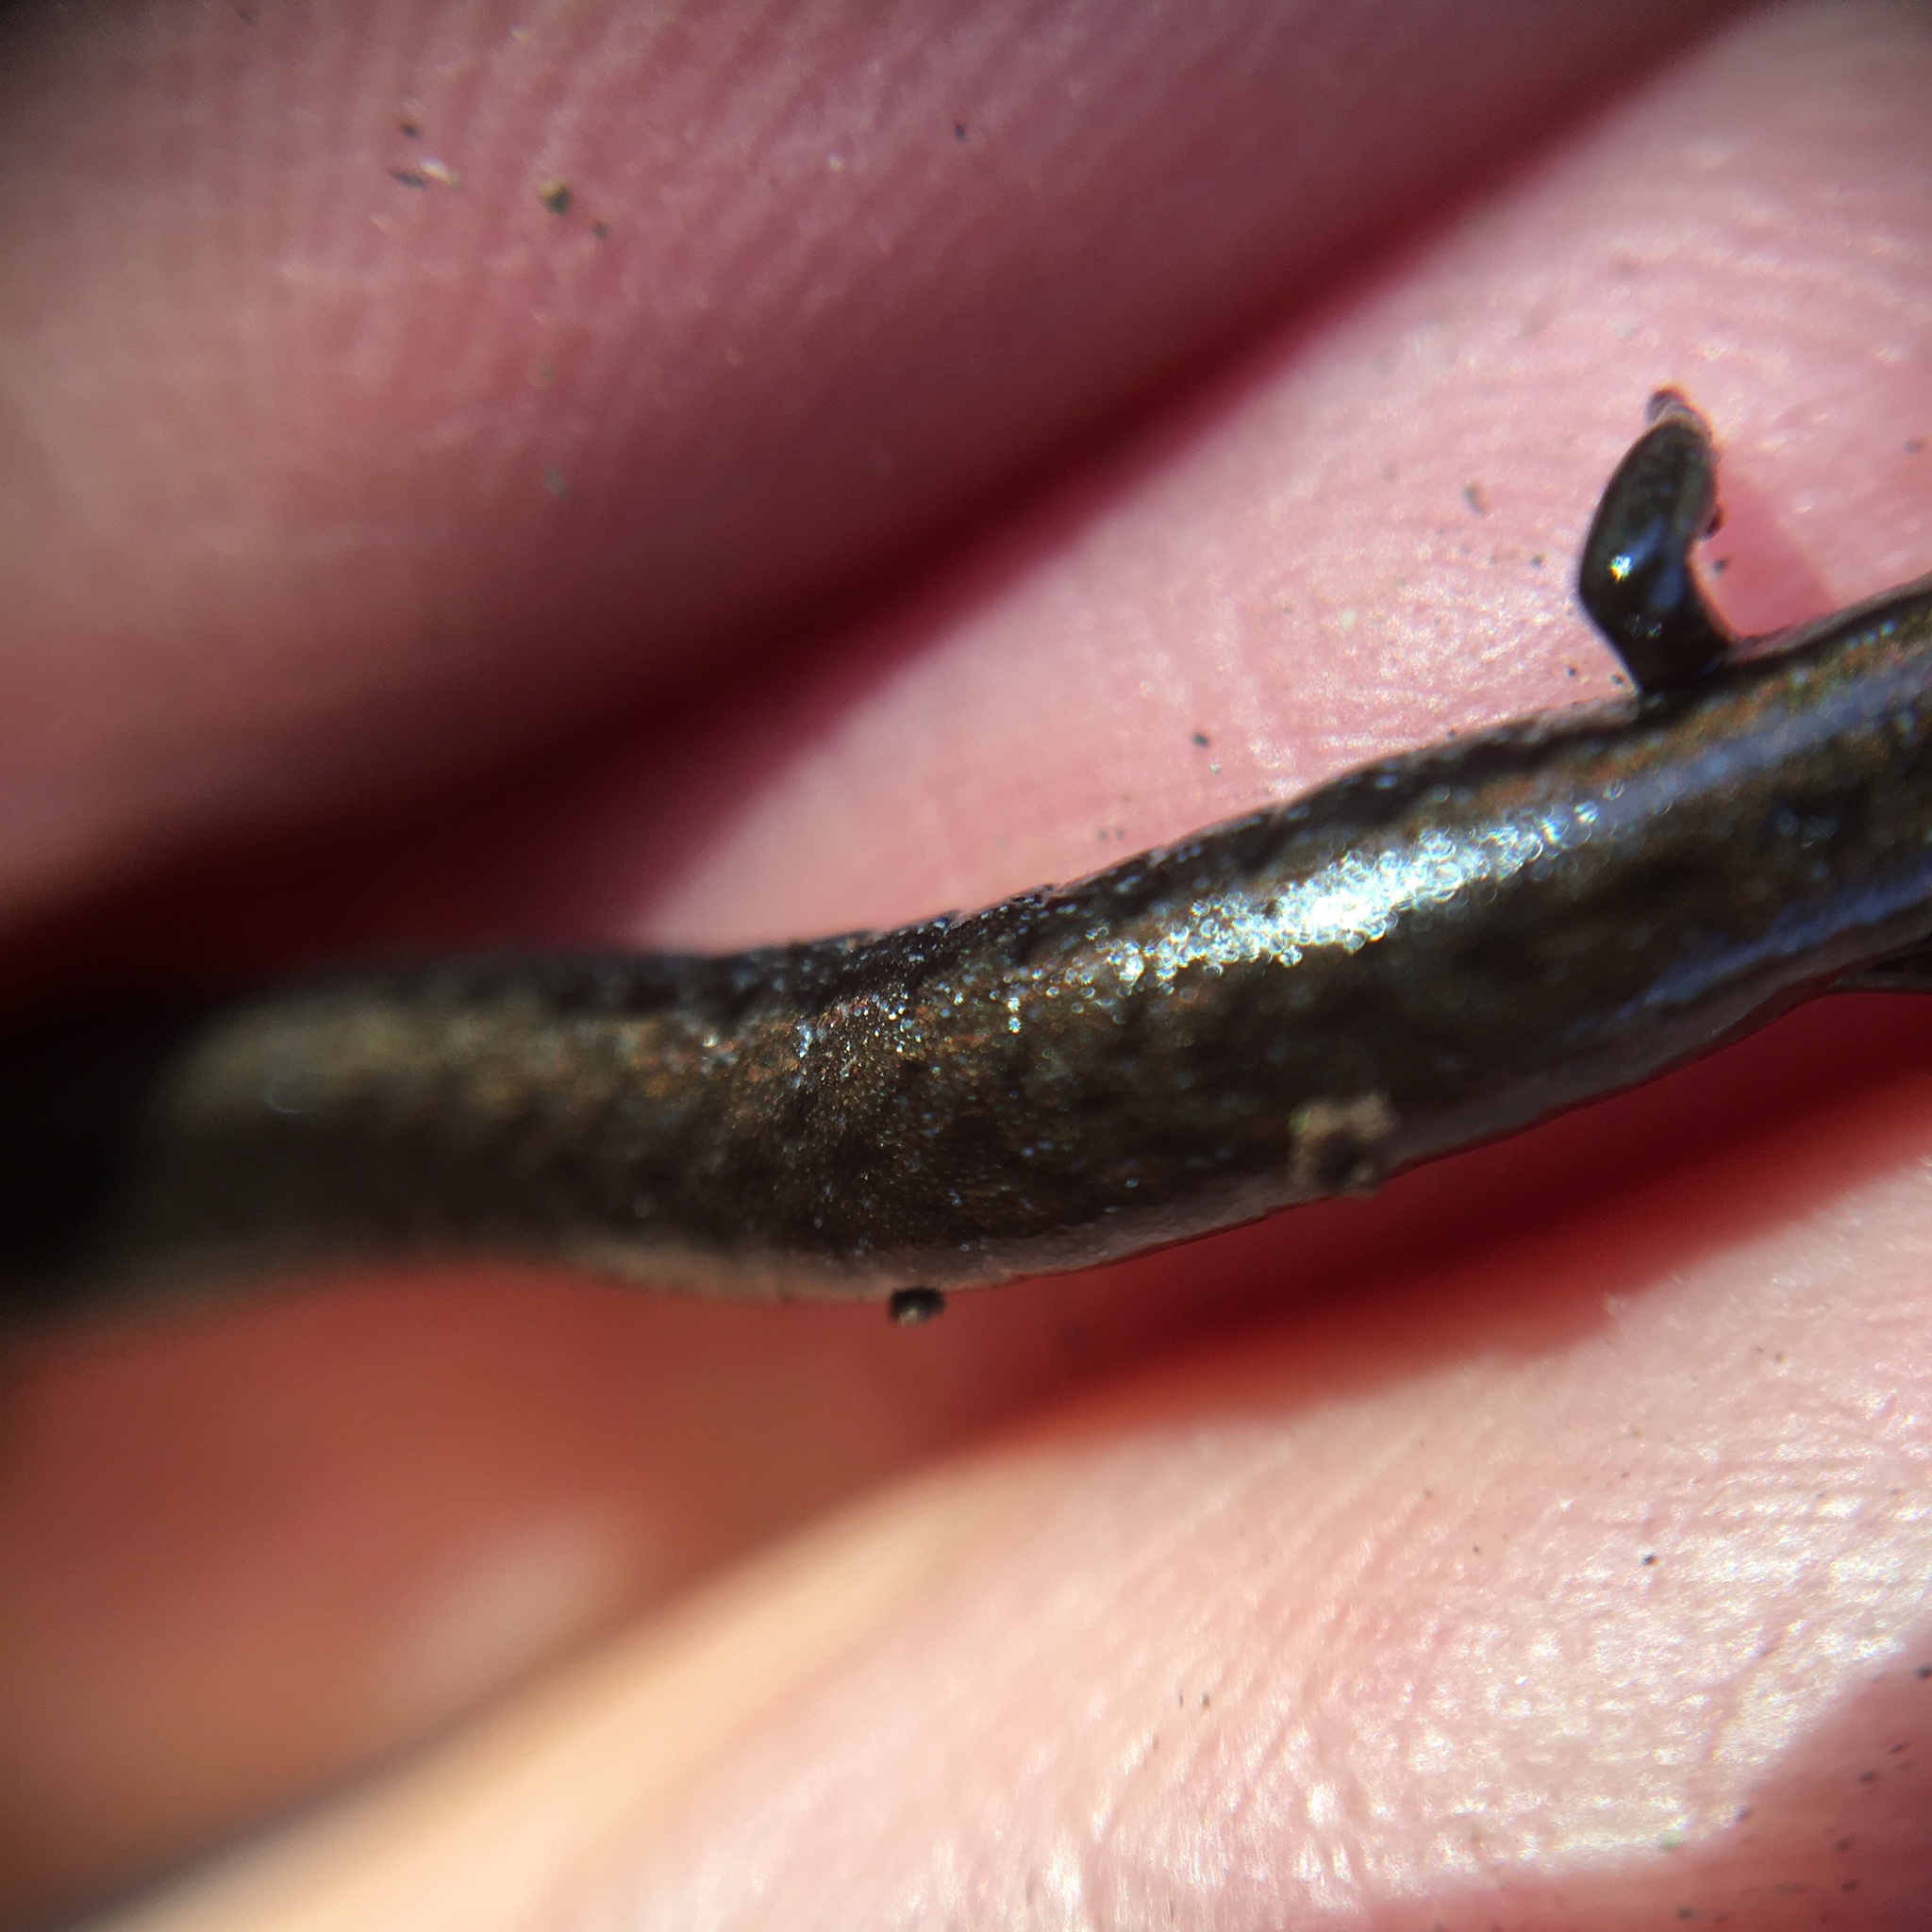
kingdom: Animalia
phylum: Chordata
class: Amphibia
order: Caudata
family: Plethodontidae
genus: Batrachoseps
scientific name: Batrachoseps nigriventris
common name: Black-bellied slender salamander
